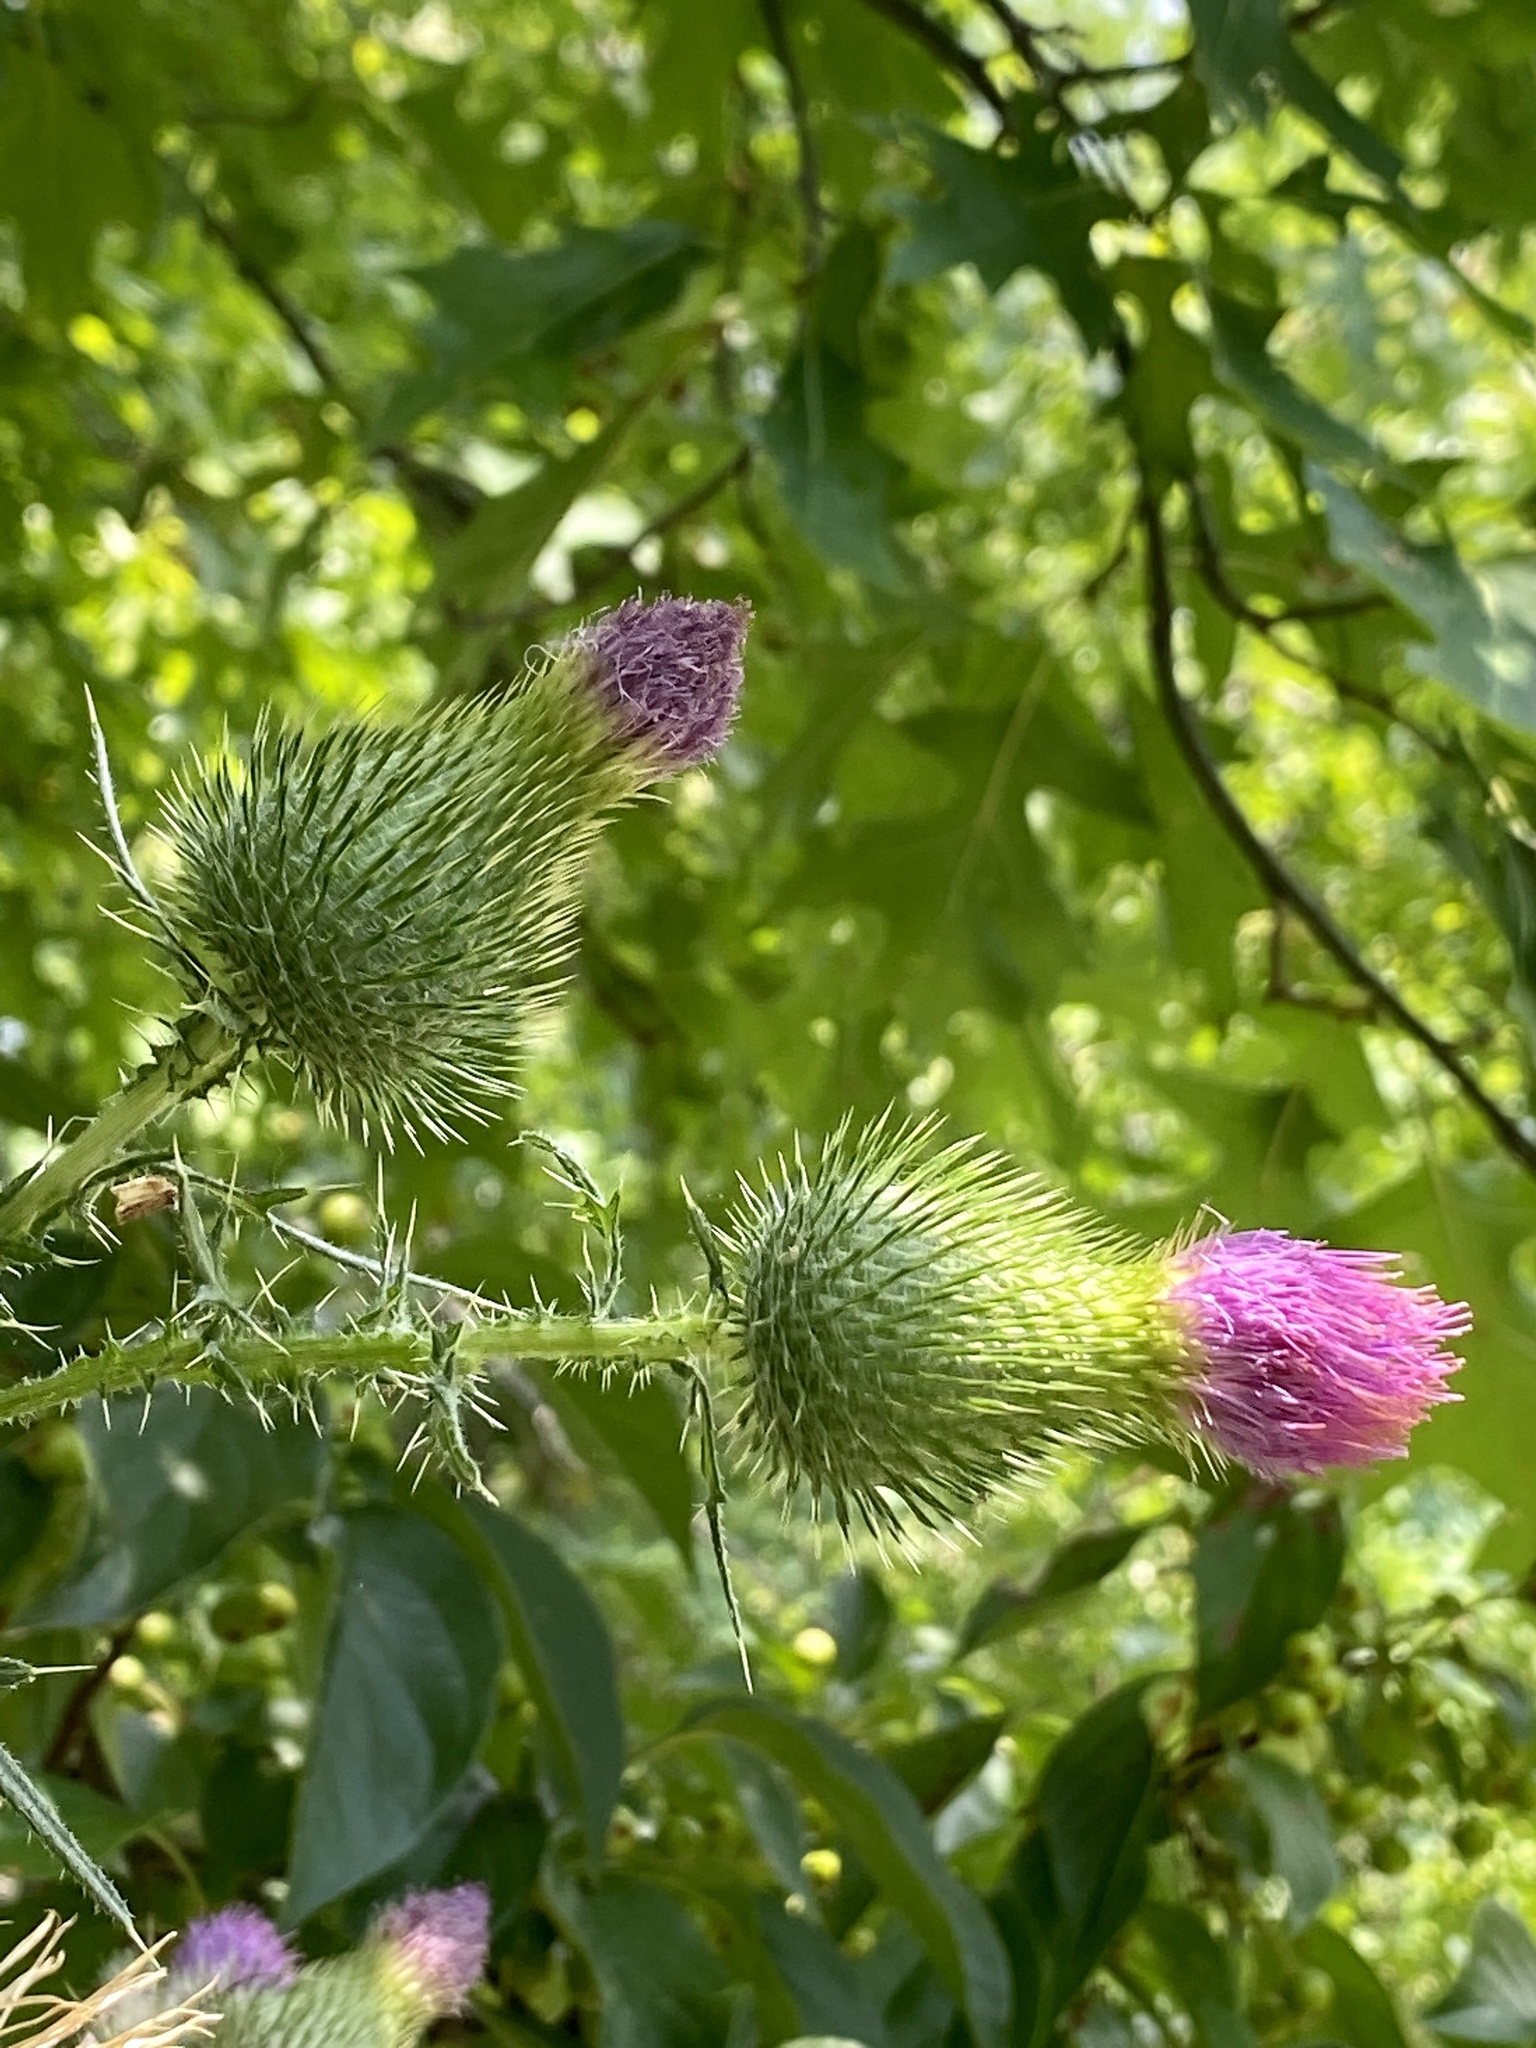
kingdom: Plantae
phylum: Tracheophyta
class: Magnoliopsida
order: Asterales
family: Asteraceae
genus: Cirsium
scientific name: Cirsium vulgare
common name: Bull thistle
